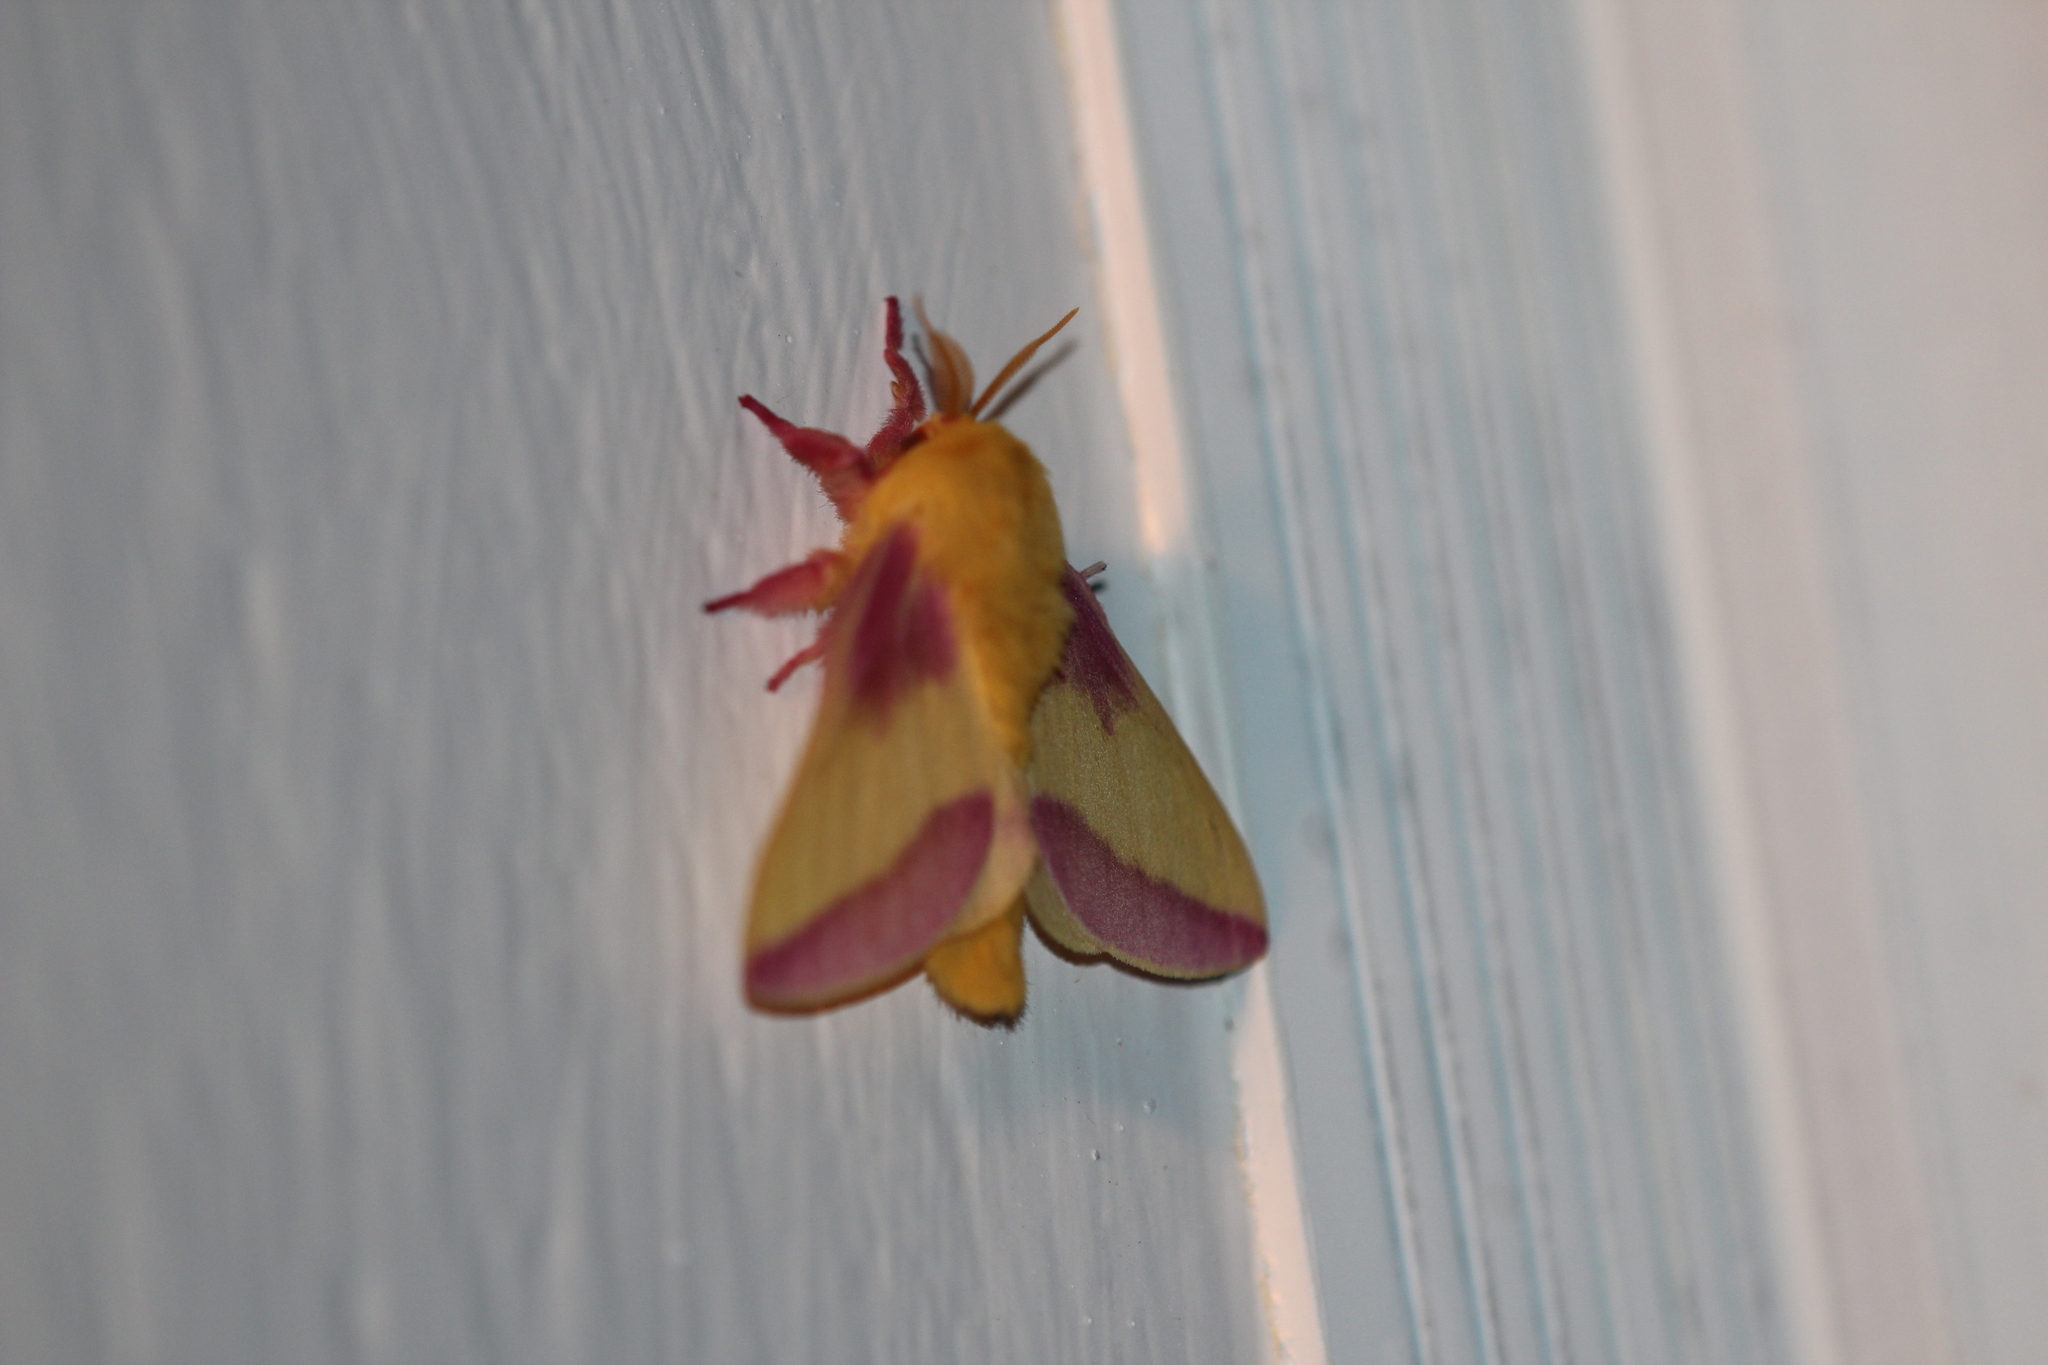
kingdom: Animalia
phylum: Arthropoda
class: Insecta
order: Lepidoptera
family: Saturniidae
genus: Dryocampa
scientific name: Dryocampa rubicunda
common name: Rosy maple moth
